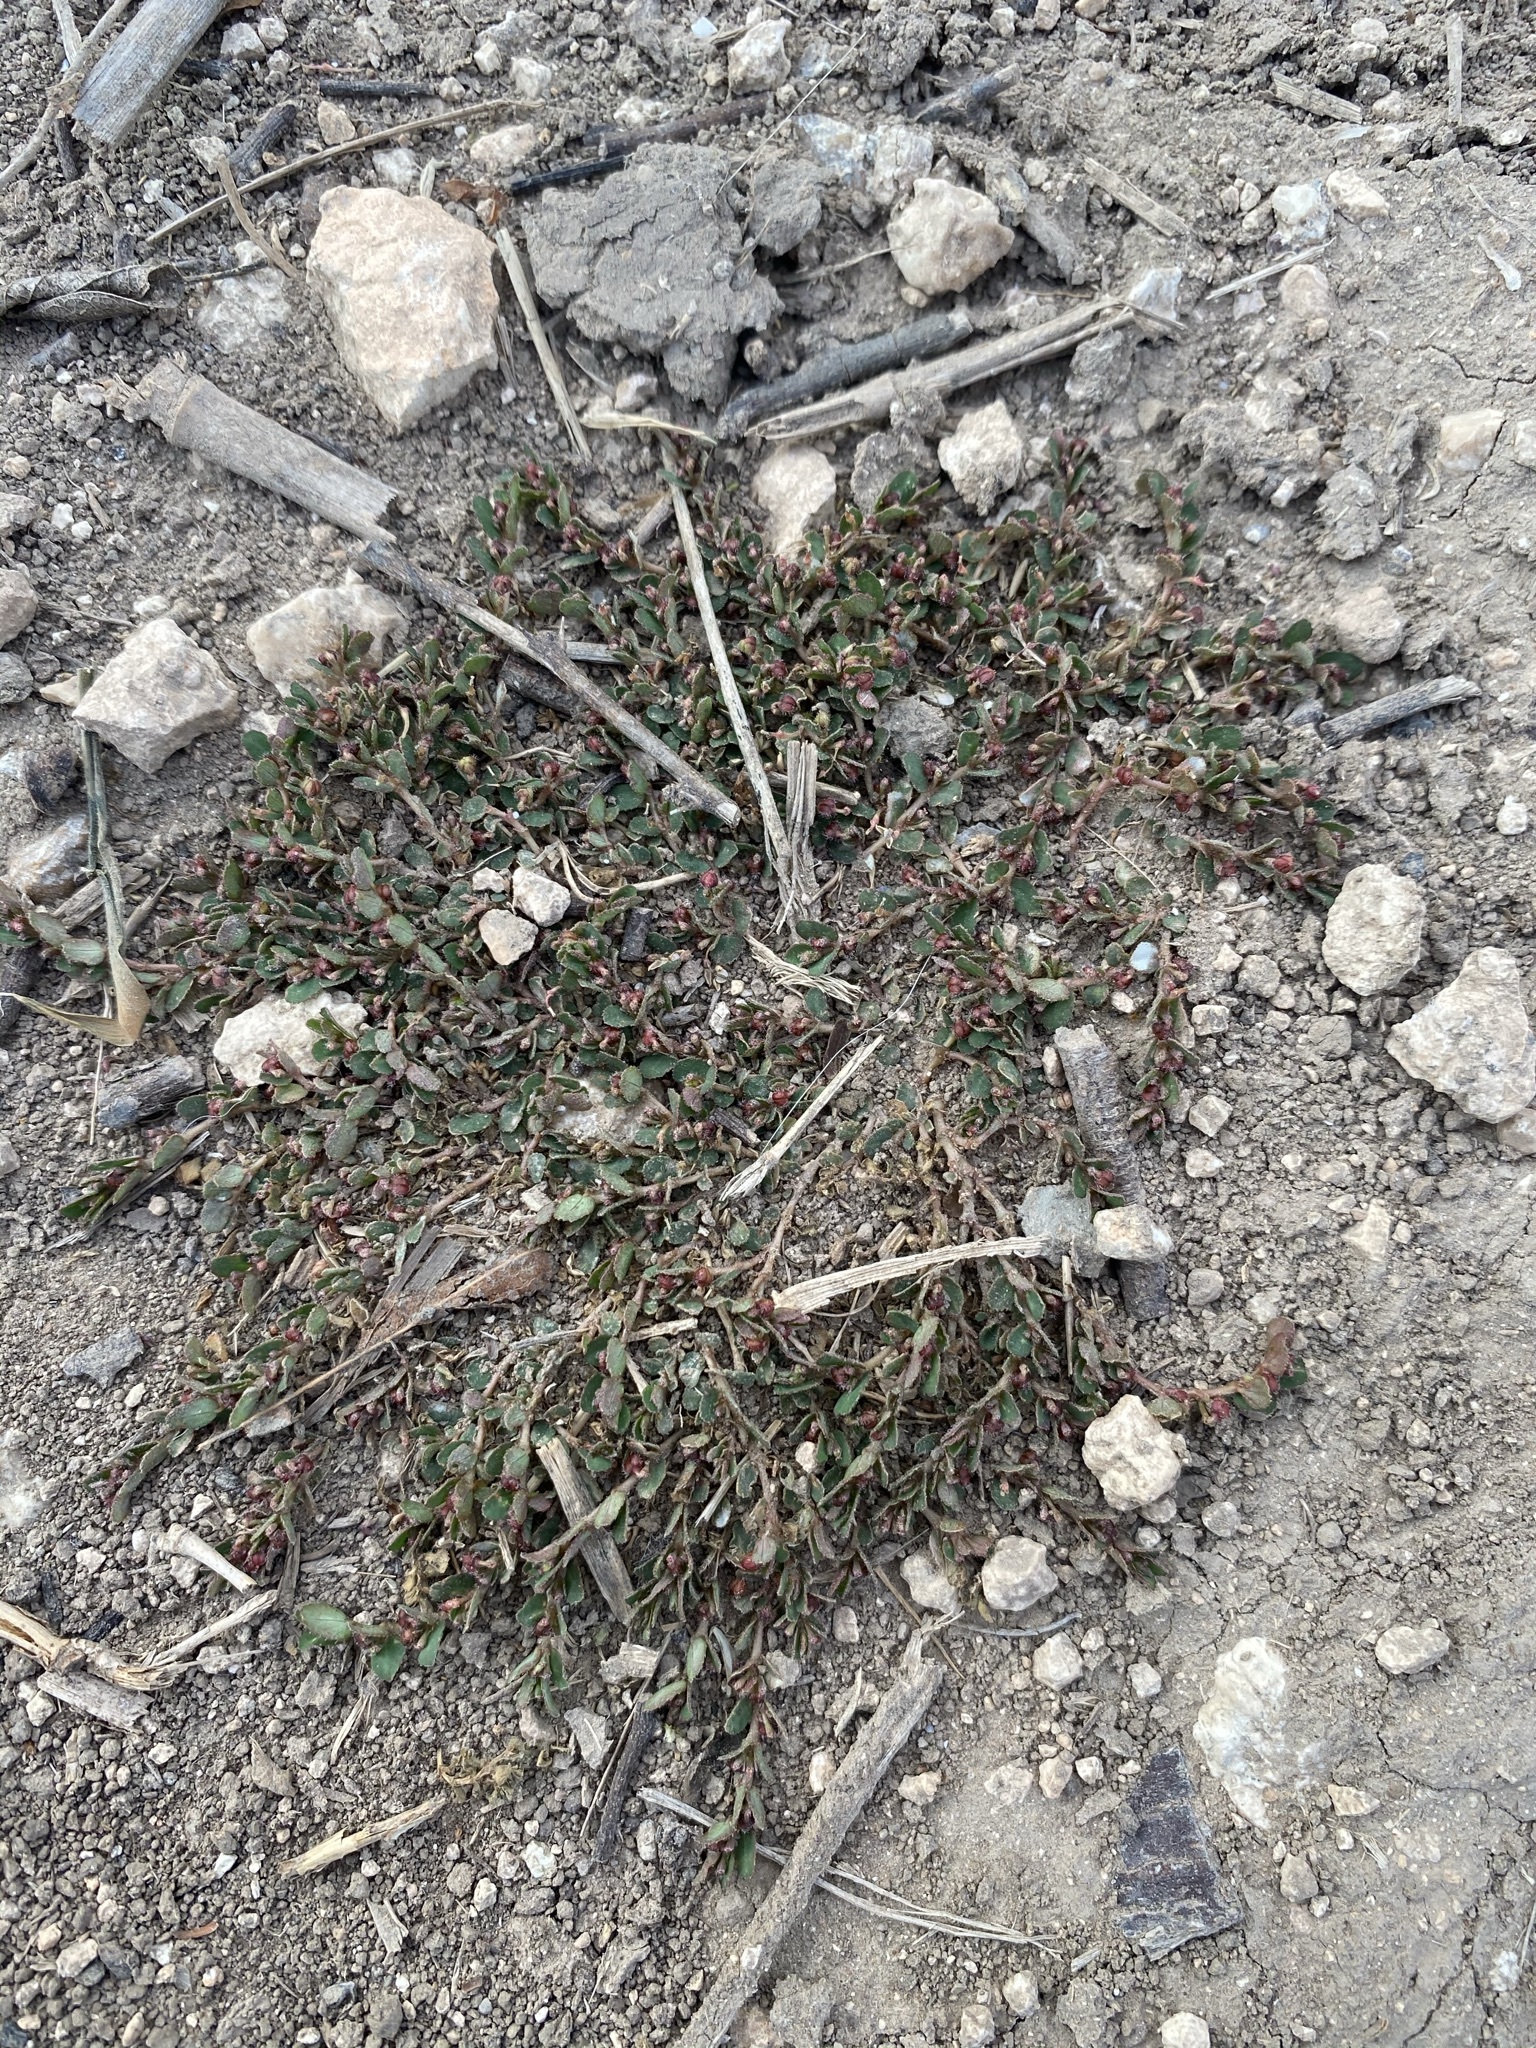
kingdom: Plantae
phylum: Tracheophyta
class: Magnoliopsida
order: Malpighiales
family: Euphorbiaceae
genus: Euphorbia
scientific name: Euphorbia prostrata
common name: Prostrate sandmat
